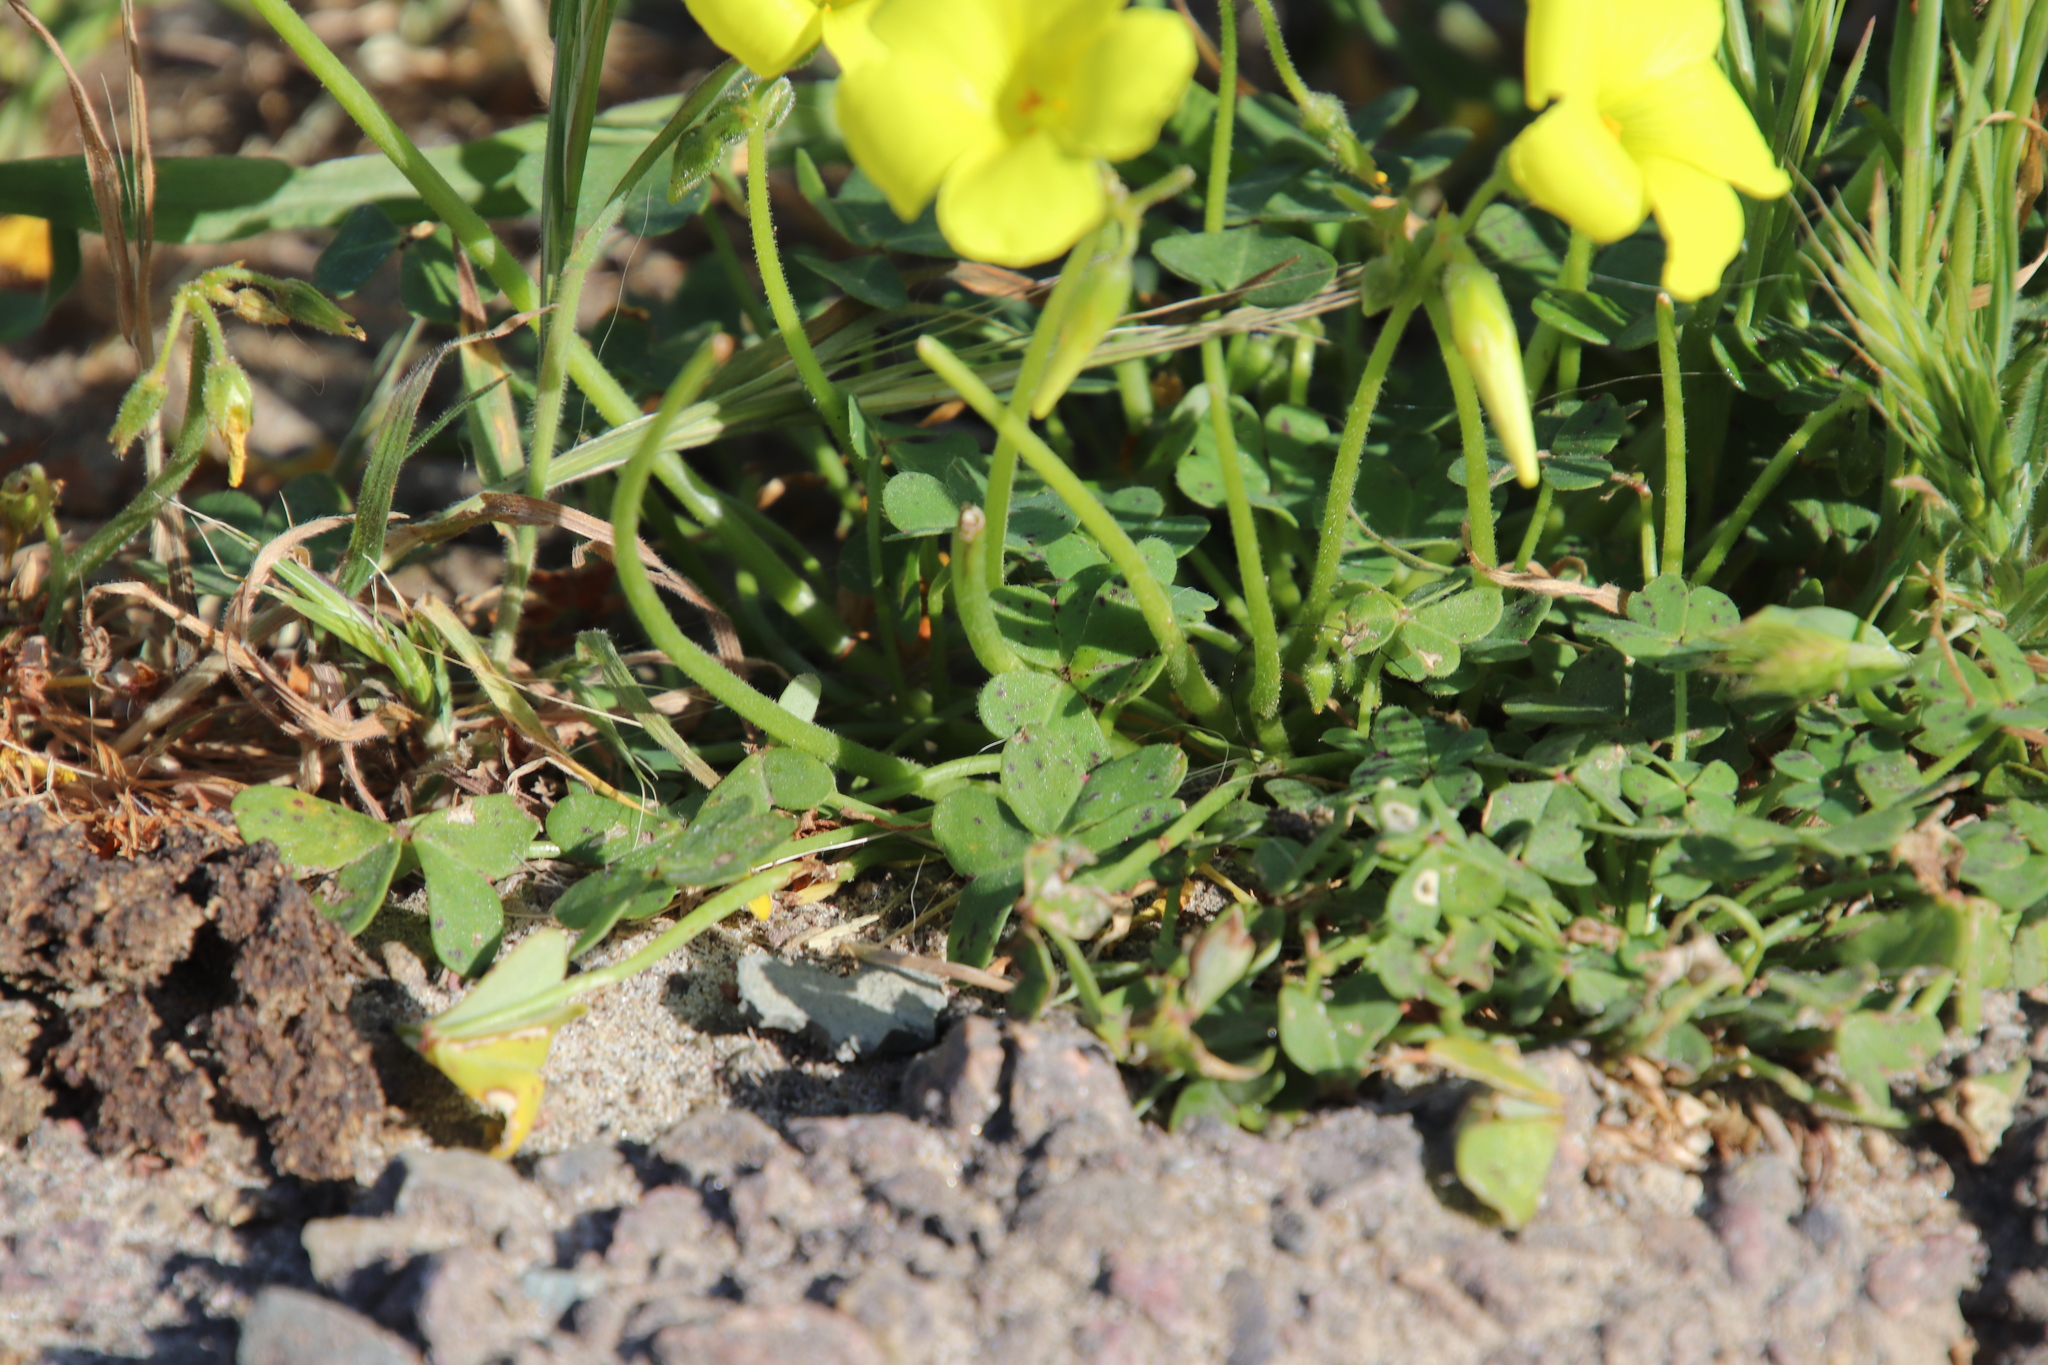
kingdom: Plantae
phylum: Tracheophyta
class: Magnoliopsida
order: Oxalidales
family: Oxalidaceae
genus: Oxalis
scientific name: Oxalis pes-caprae
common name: Bermuda-buttercup
